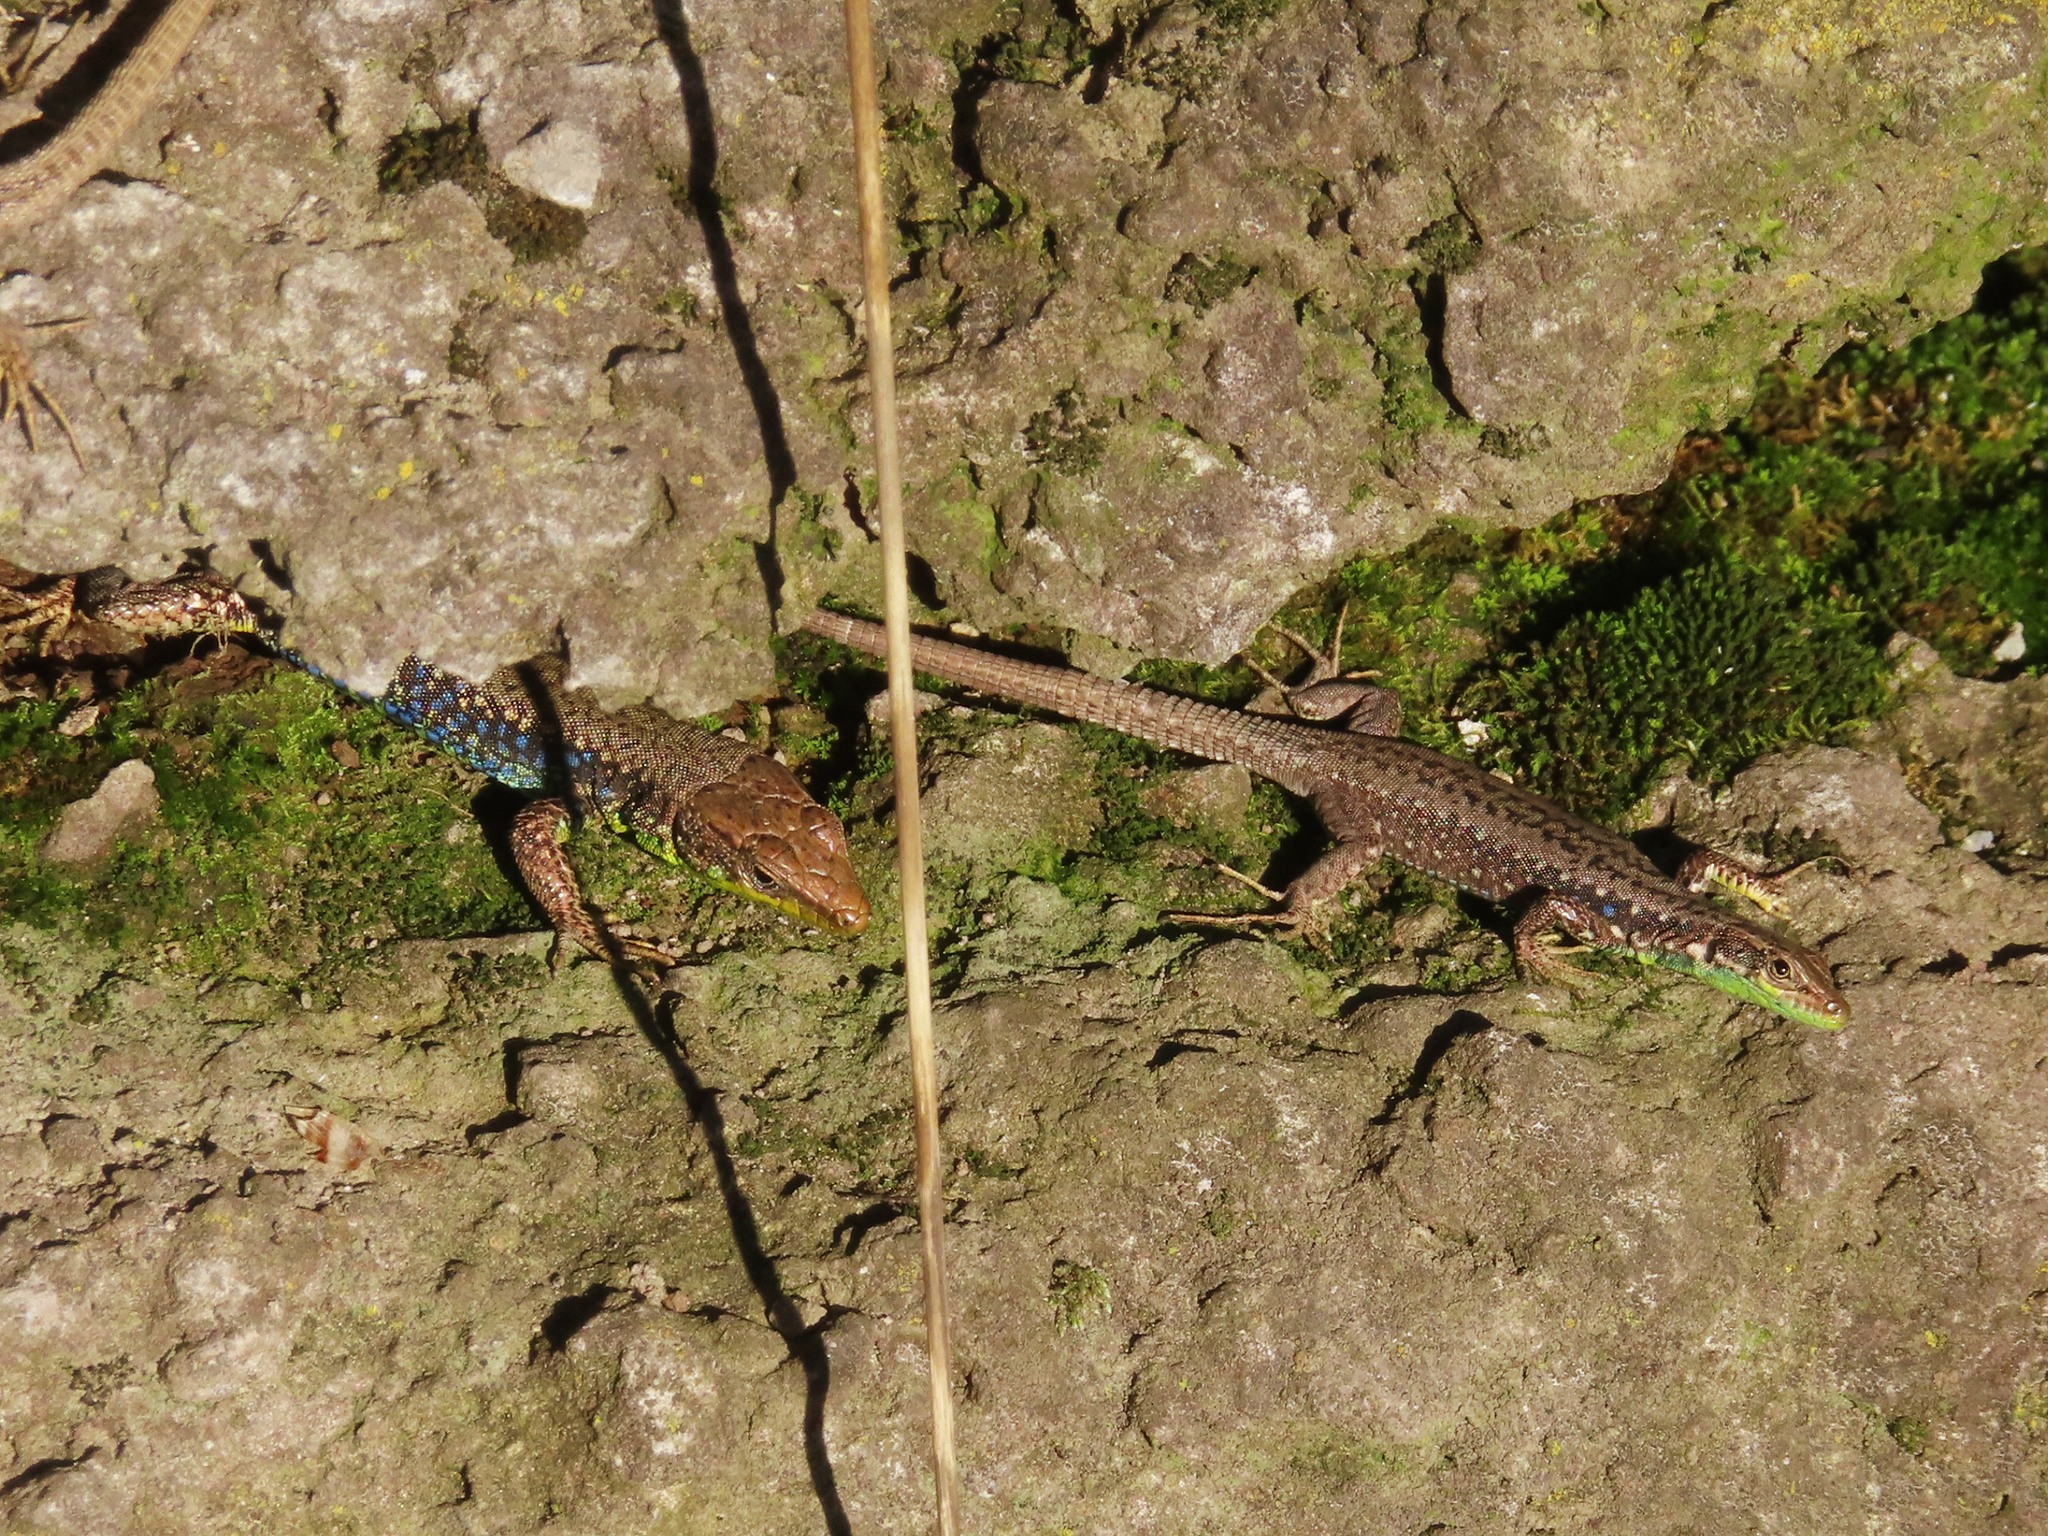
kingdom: Animalia
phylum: Chordata
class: Squamata
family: Lacertidae
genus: Darevskia
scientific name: Darevskia raddei
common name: Radde's lizard
